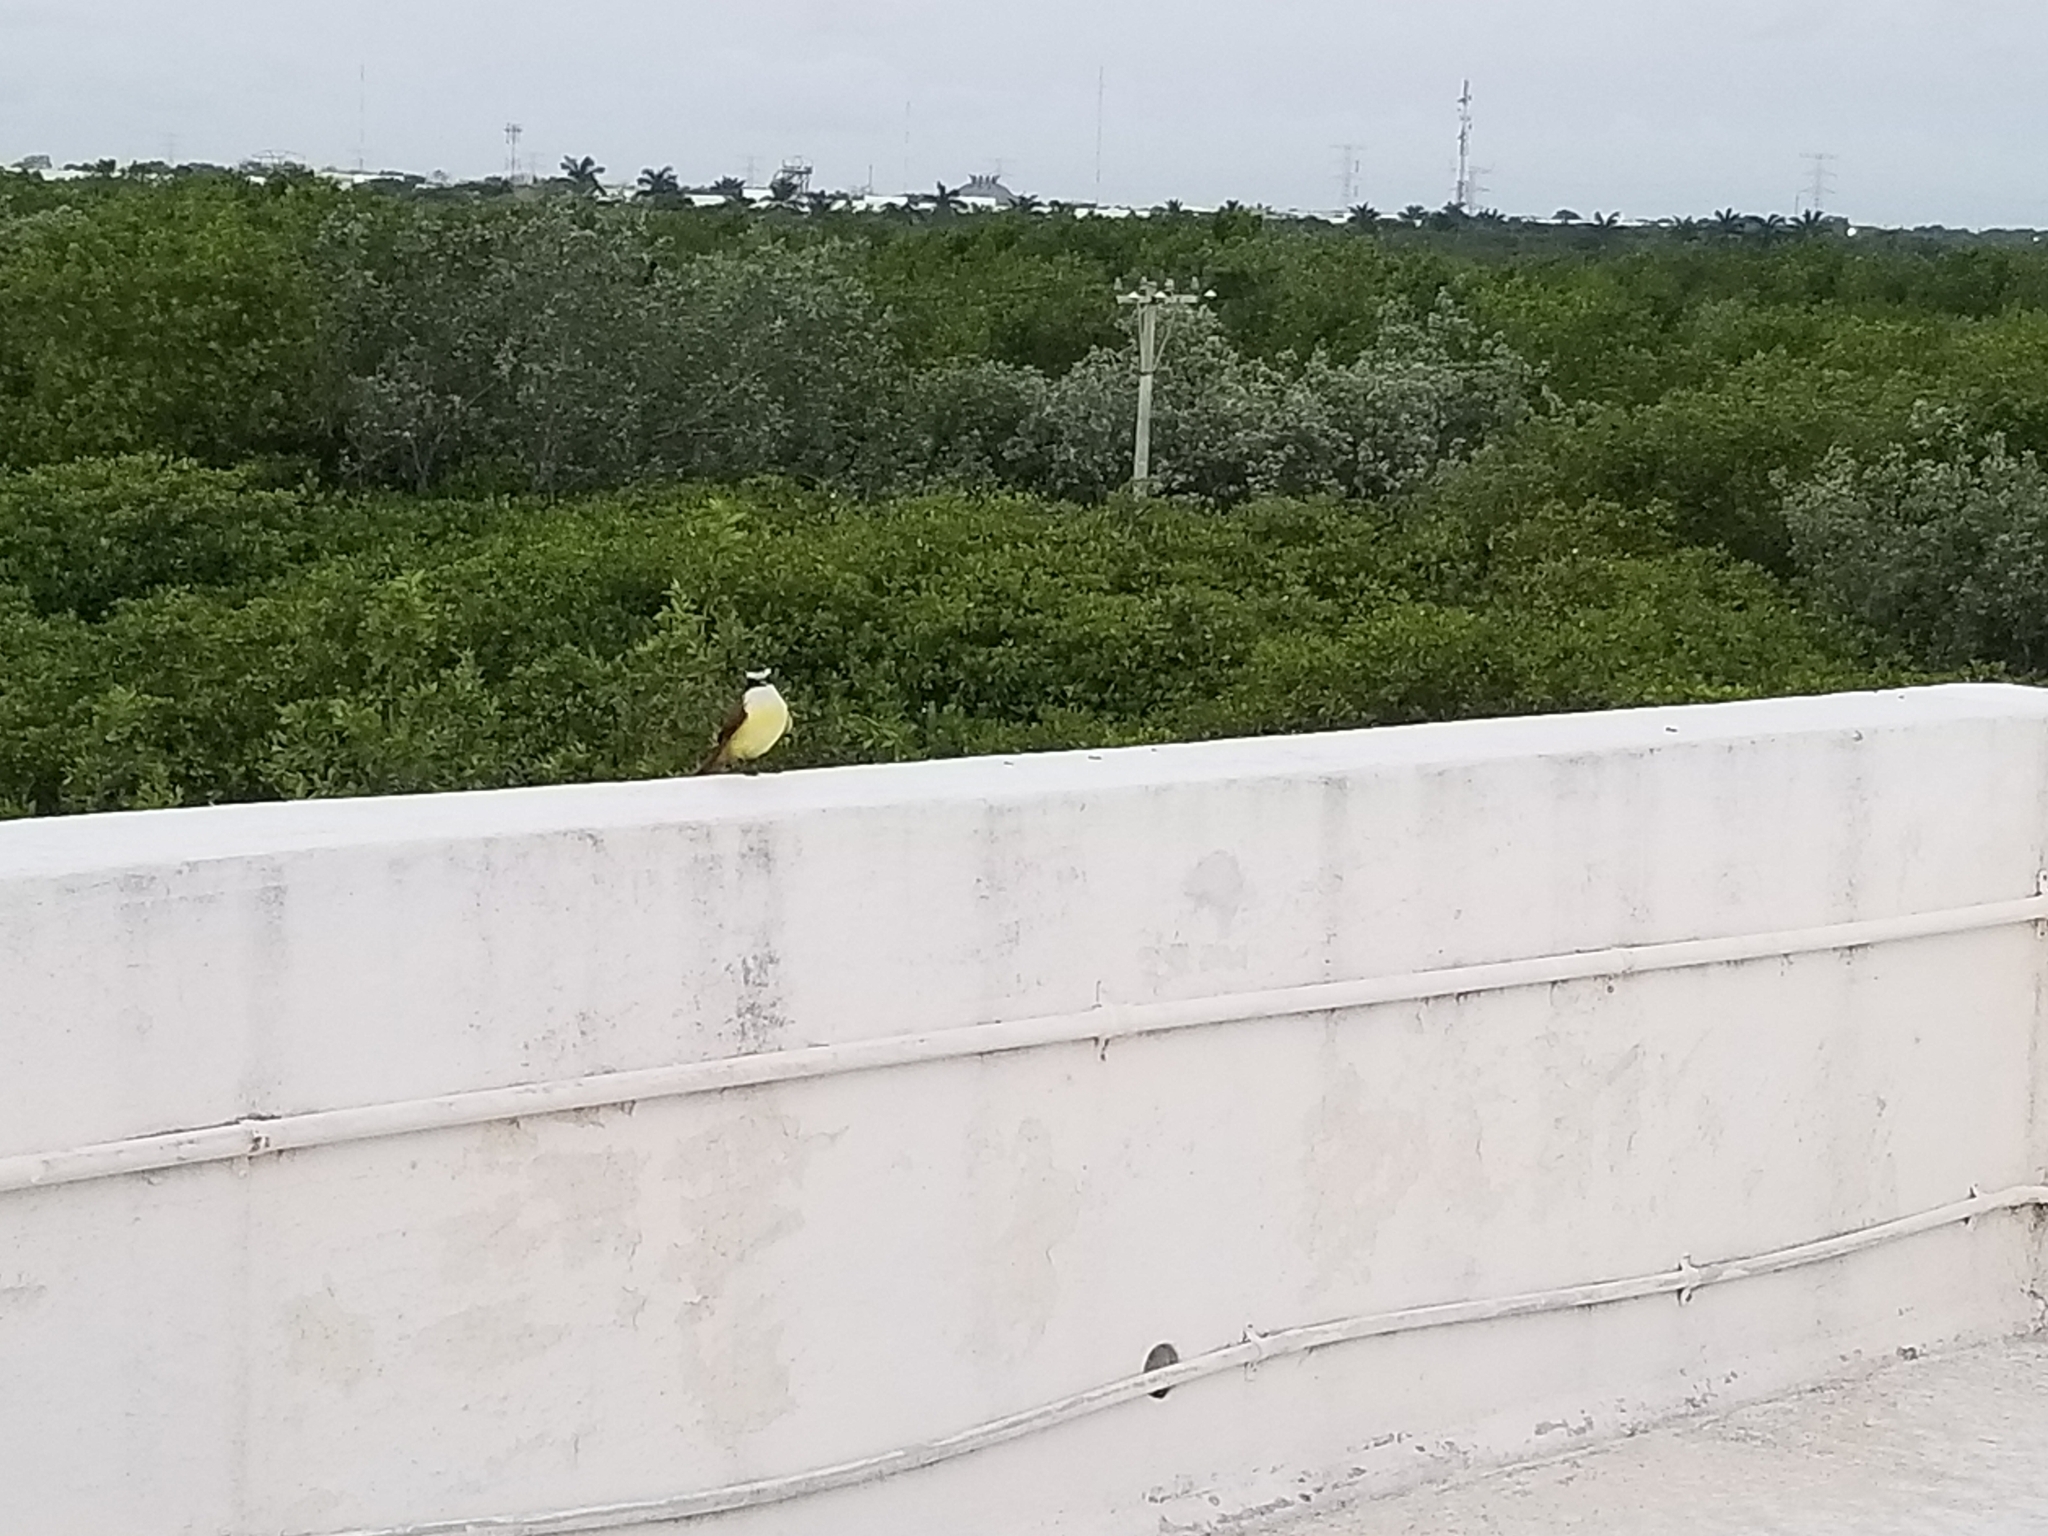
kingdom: Animalia
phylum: Chordata
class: Aves
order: Passeriformes
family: Tyrannidae
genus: Pitangus
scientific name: Pitangus sulphuratus
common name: Great kiskadee
